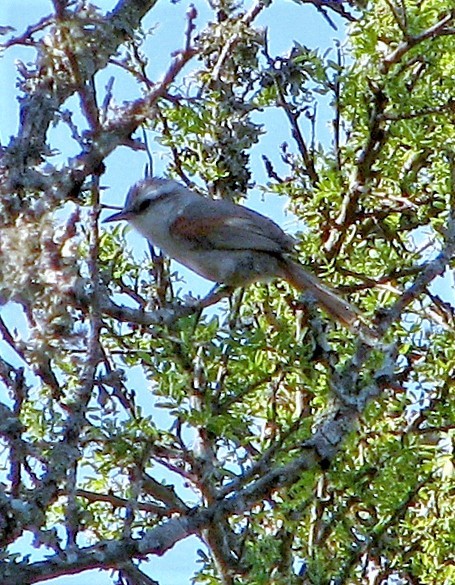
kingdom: Animalia
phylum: Chordata
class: Aves
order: Passeriformes
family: Furnariidae
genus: Cranioleuca
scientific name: Cranioleuca pyrrhophia
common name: Stripe-crowned spinetail
